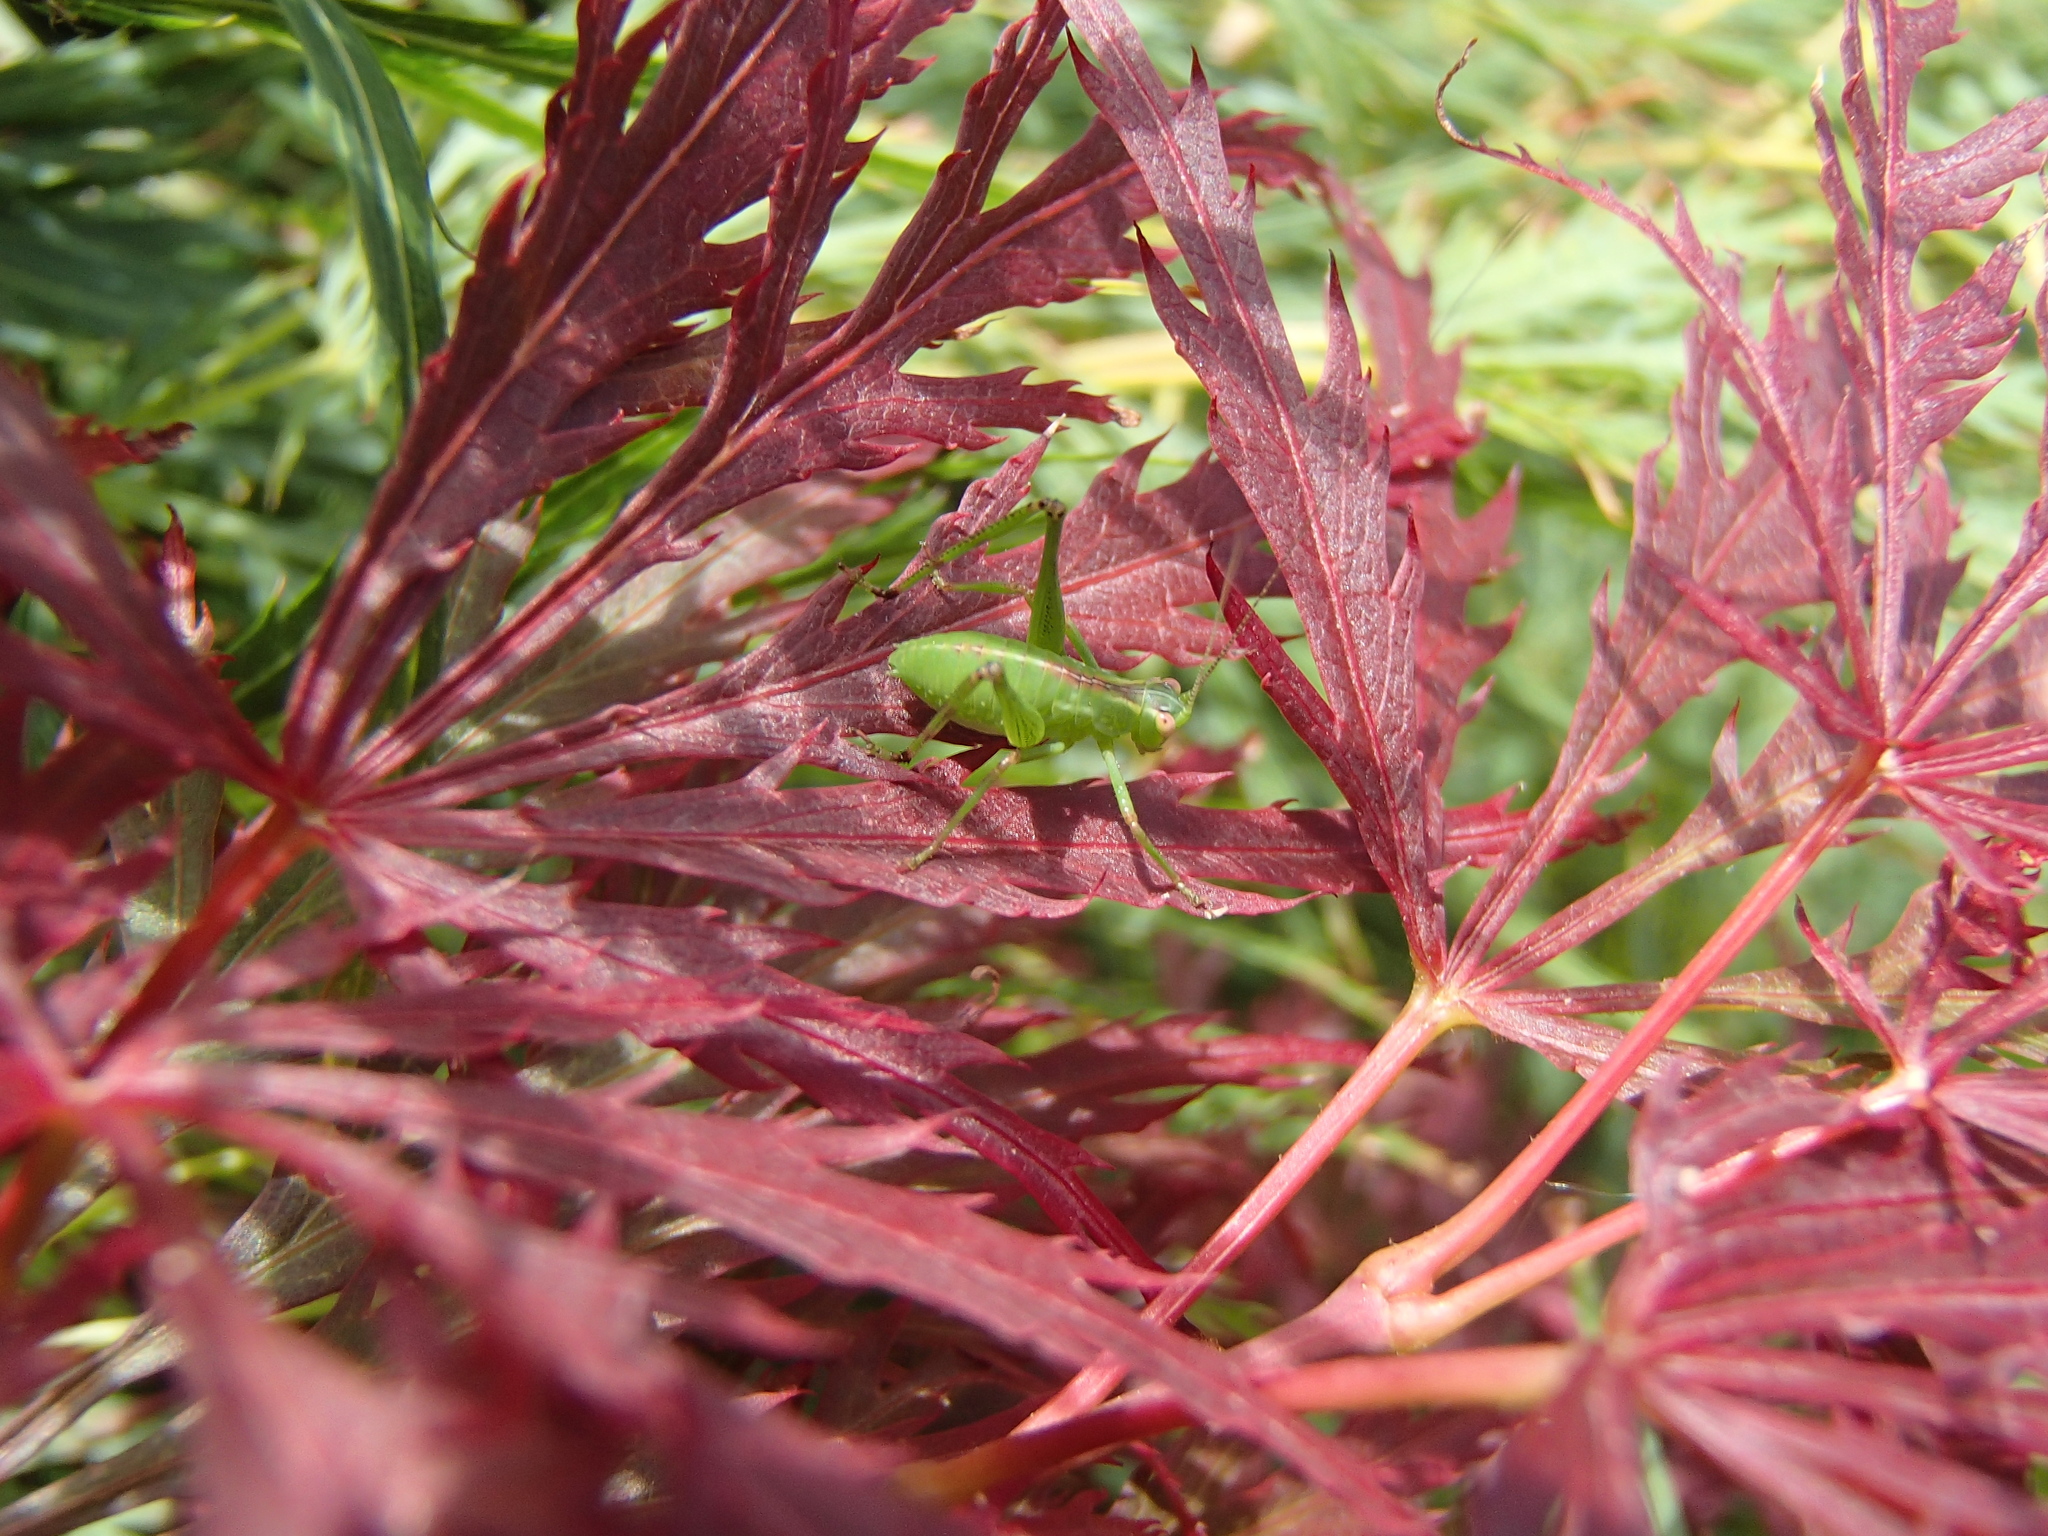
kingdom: Animalia
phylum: Arthropoda
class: Insecta
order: Orthoptera
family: Tettigoniidae
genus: Caedicia
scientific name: Caedicia simplex
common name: Common garden katydid
